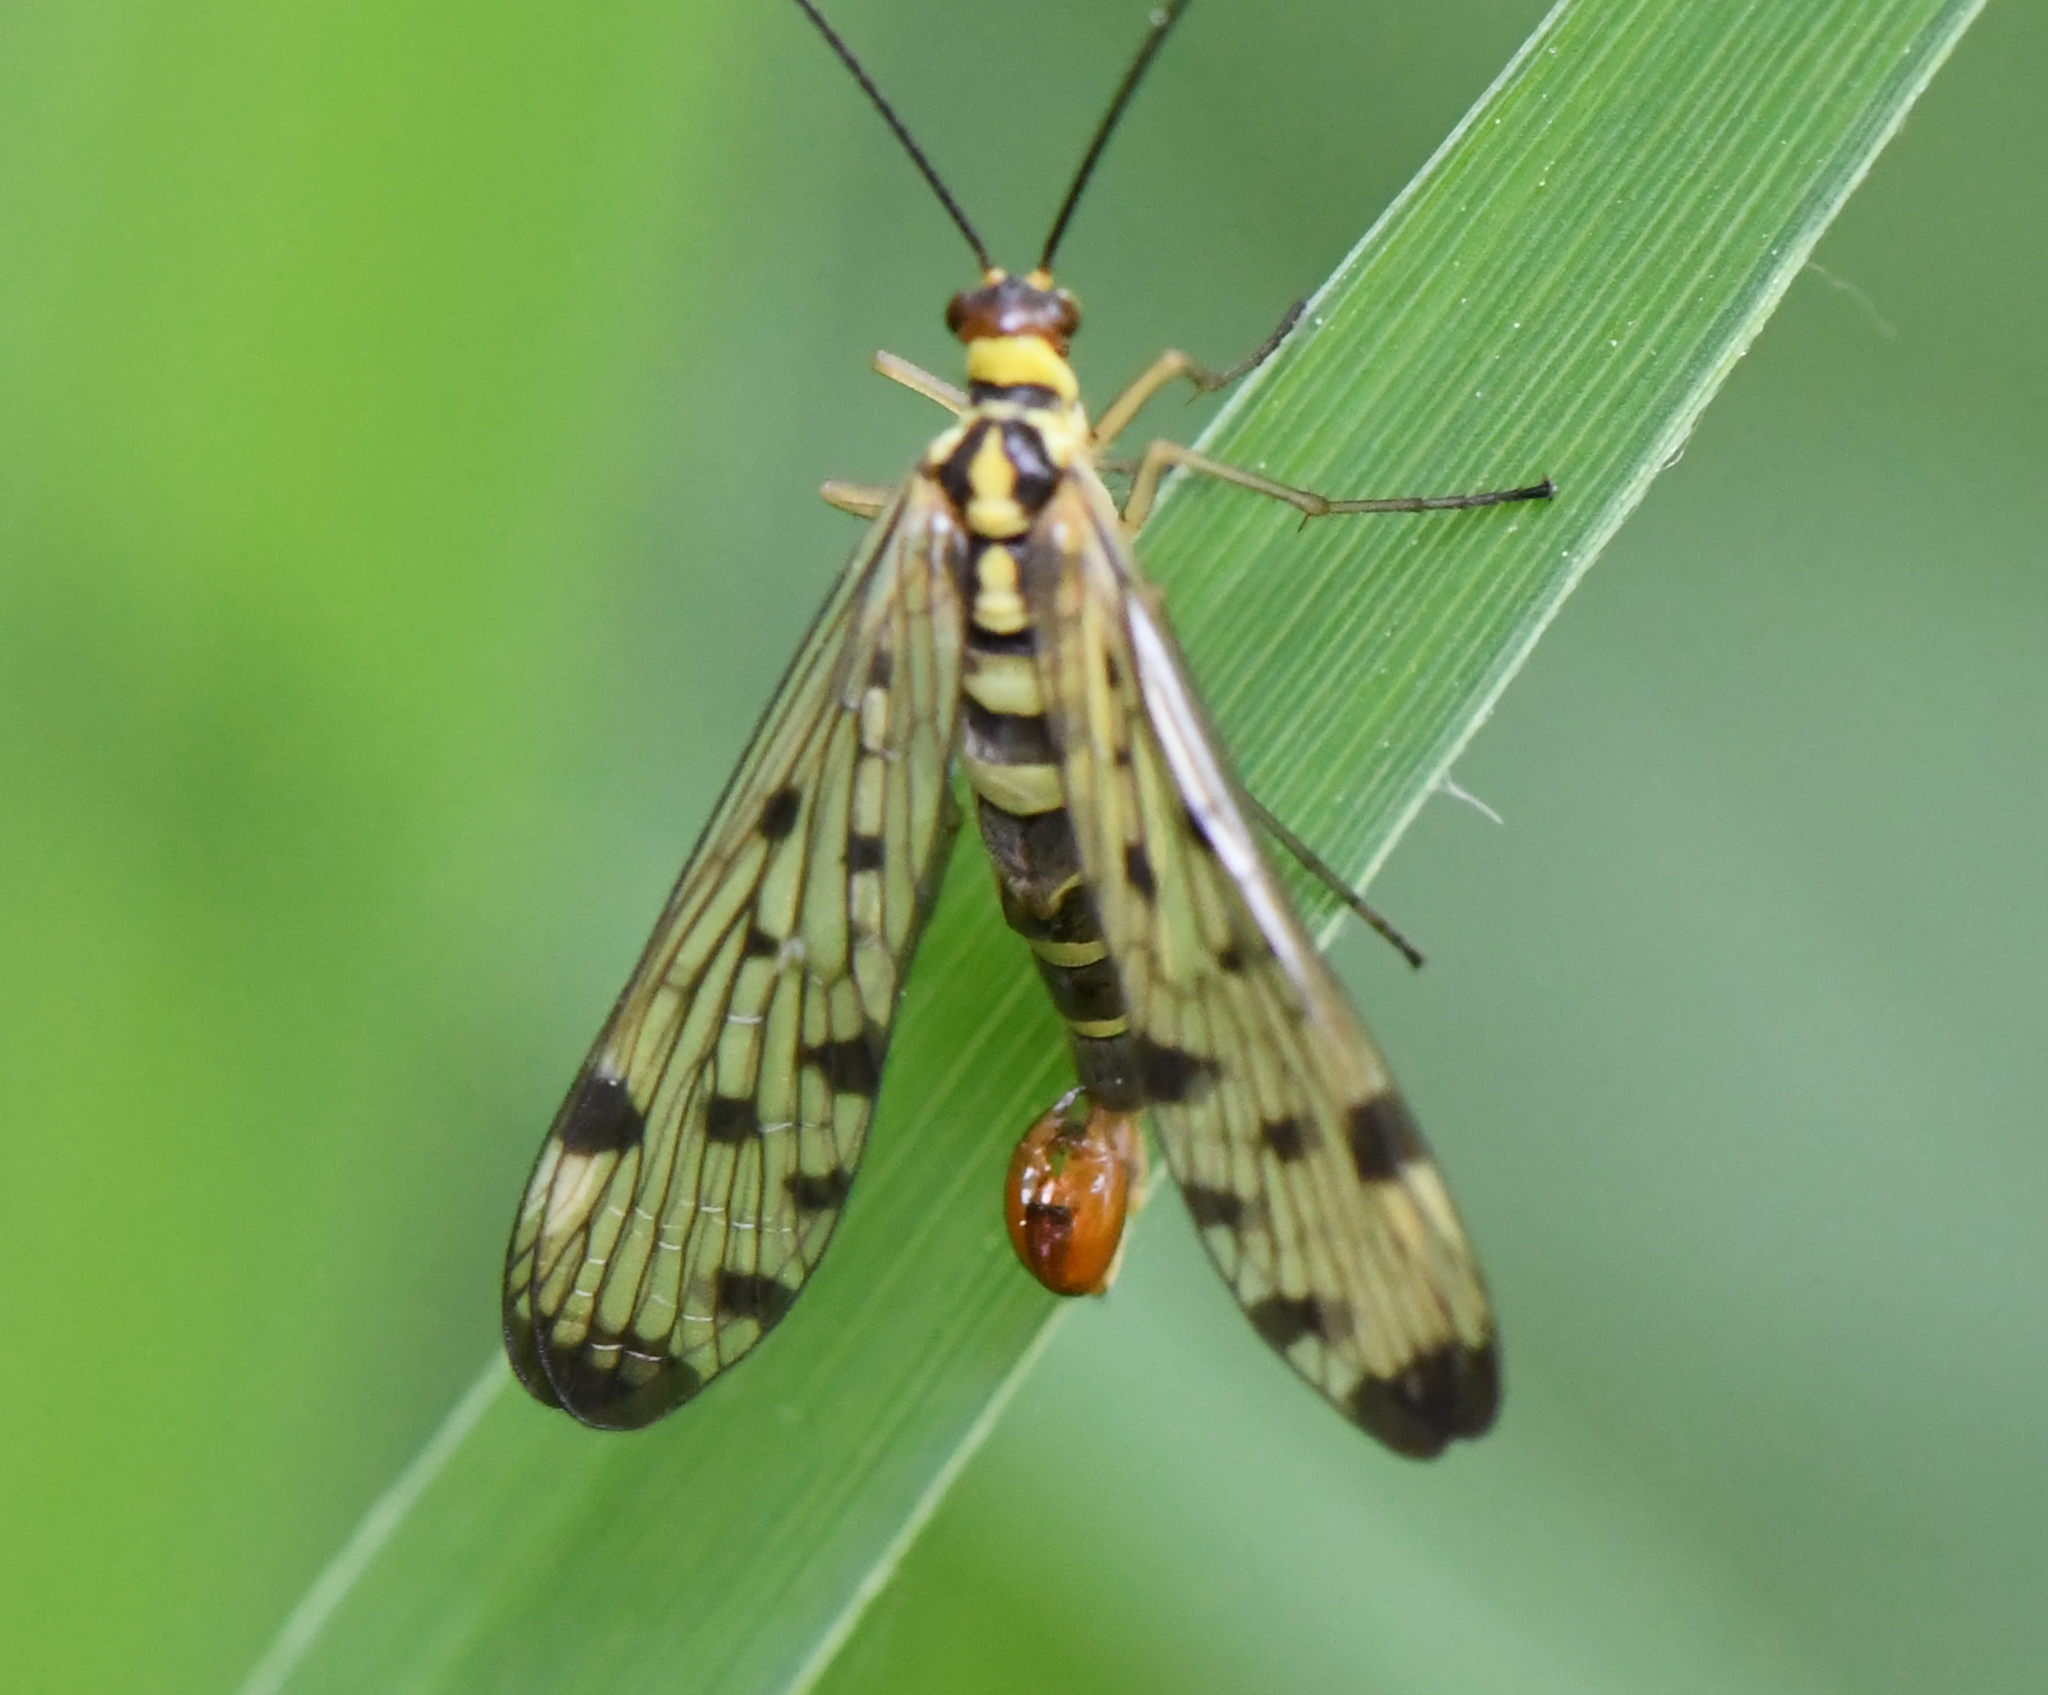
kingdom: Animalia
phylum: Arthropoda
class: Insecta
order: Mecoptera
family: Panorpidae
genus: Panorpa
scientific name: Panorpa germanica
